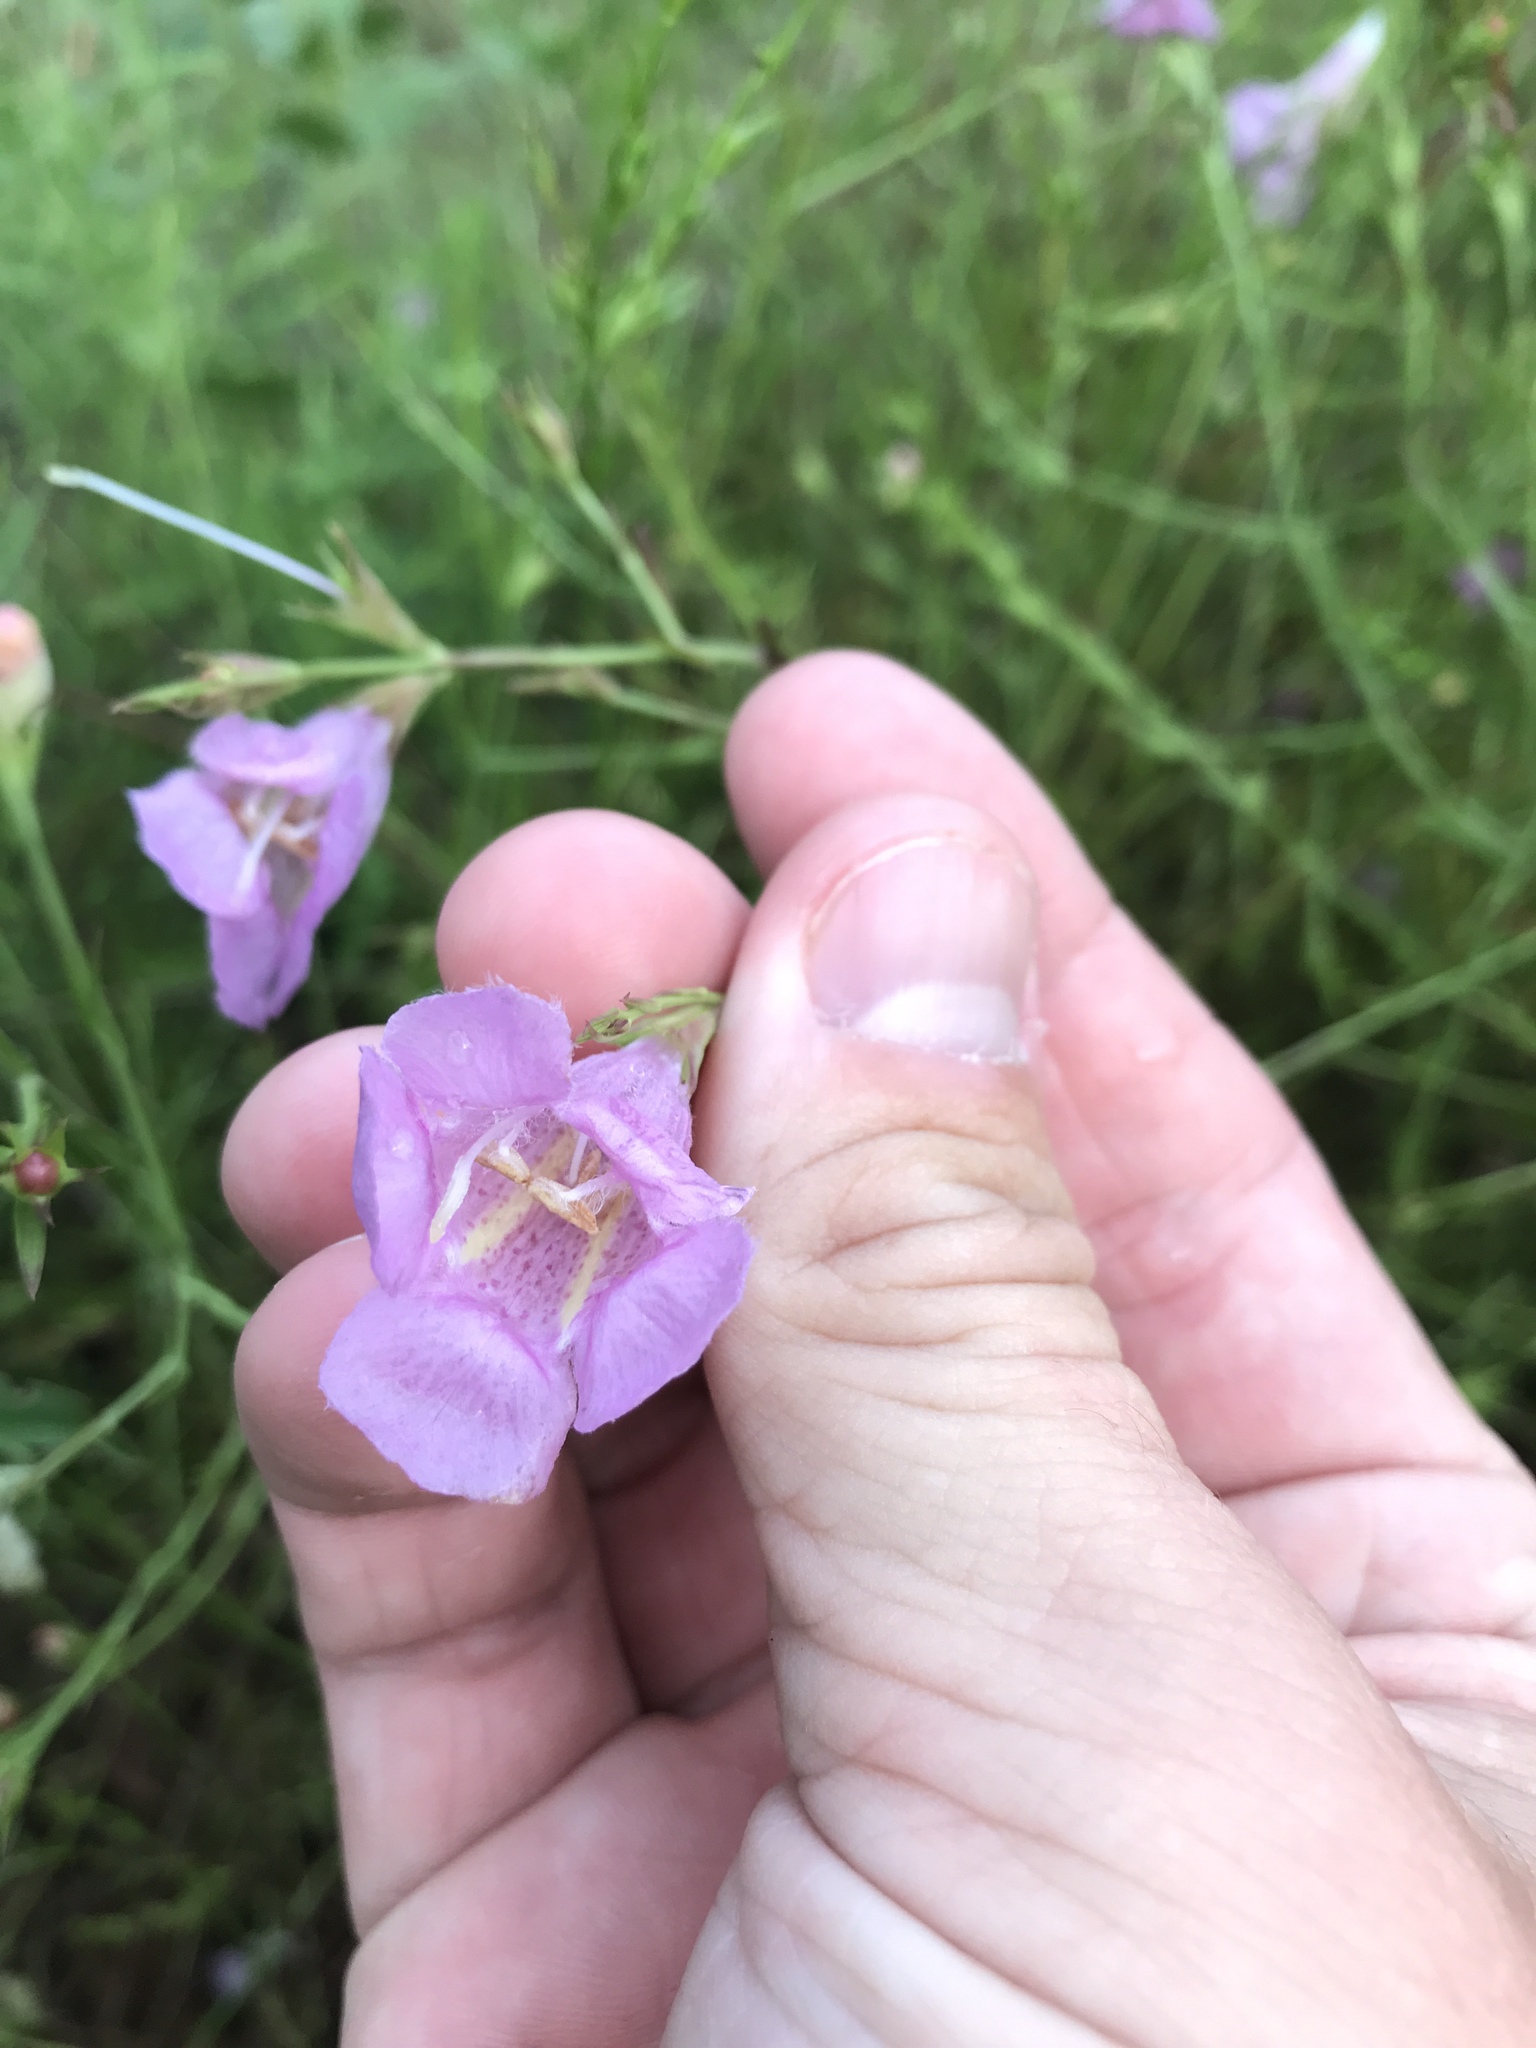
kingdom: Plantae
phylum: Tracheophyta
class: Magnoliopsida
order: Lamiales
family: Orobanchaceae
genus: Agalinis
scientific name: Agalinis heterophylla
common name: Prairie agalinis
